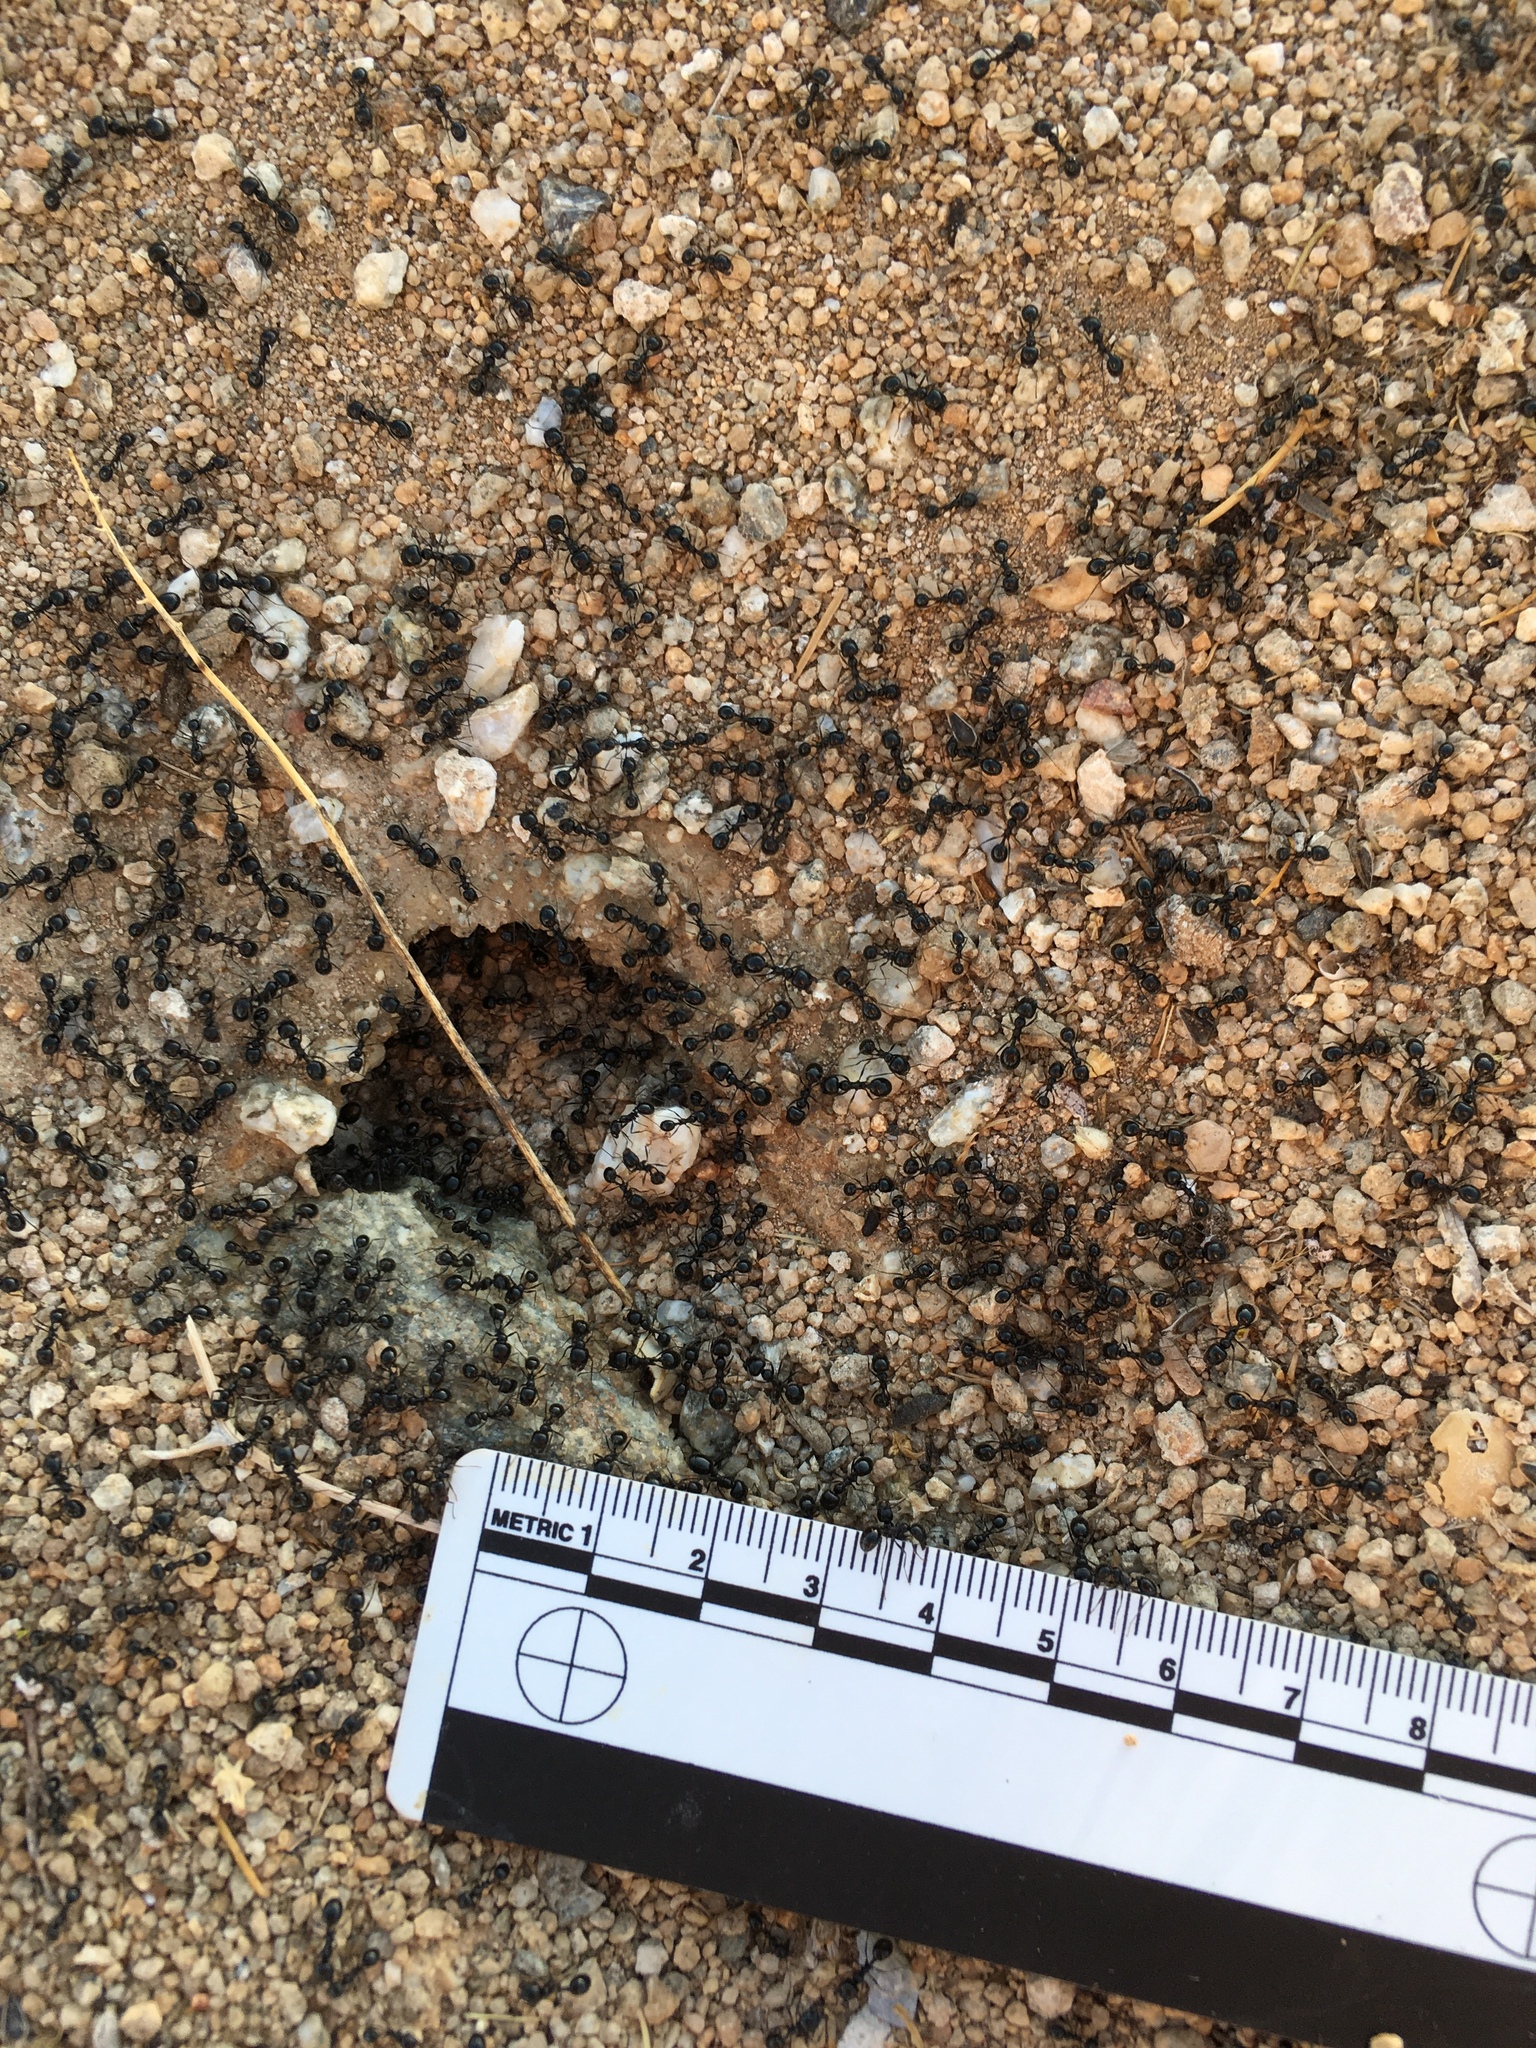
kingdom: Animalia
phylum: Arthropoda
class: Insecta
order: Hymenoptera
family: Formicidae
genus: Messor
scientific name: Messor pergandei
